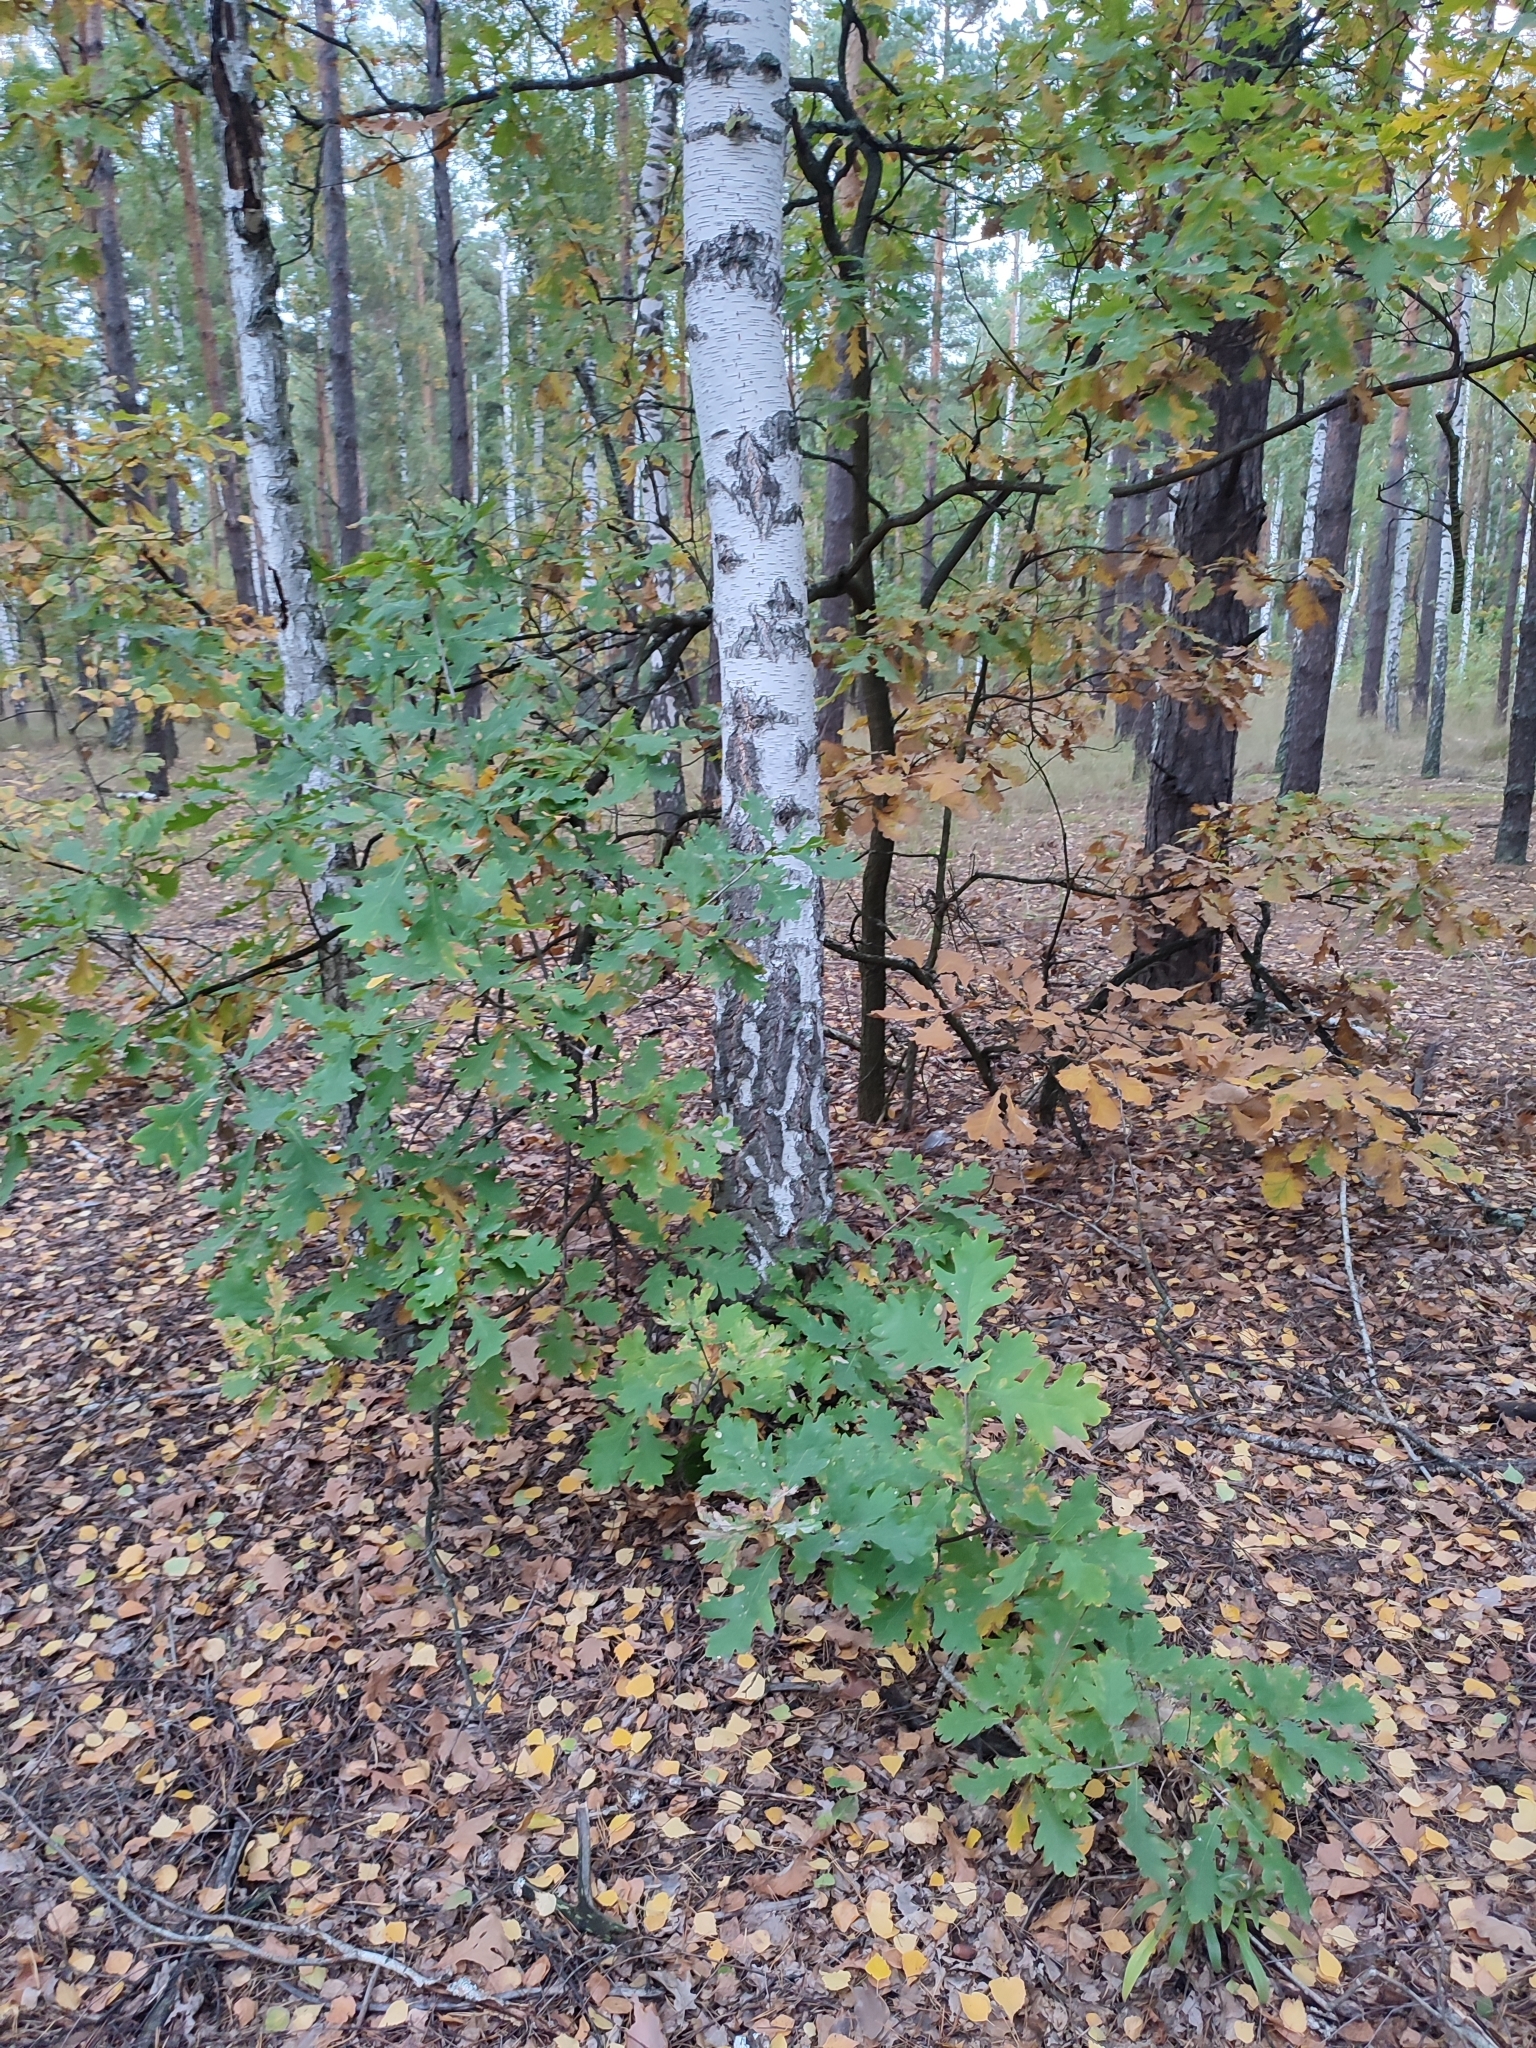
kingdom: Plantae
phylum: Tracheophyta
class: Magnoliopsida
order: Fagales
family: Fagaceae
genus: Quercus
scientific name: Quercus robur
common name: Pedunculate oak
